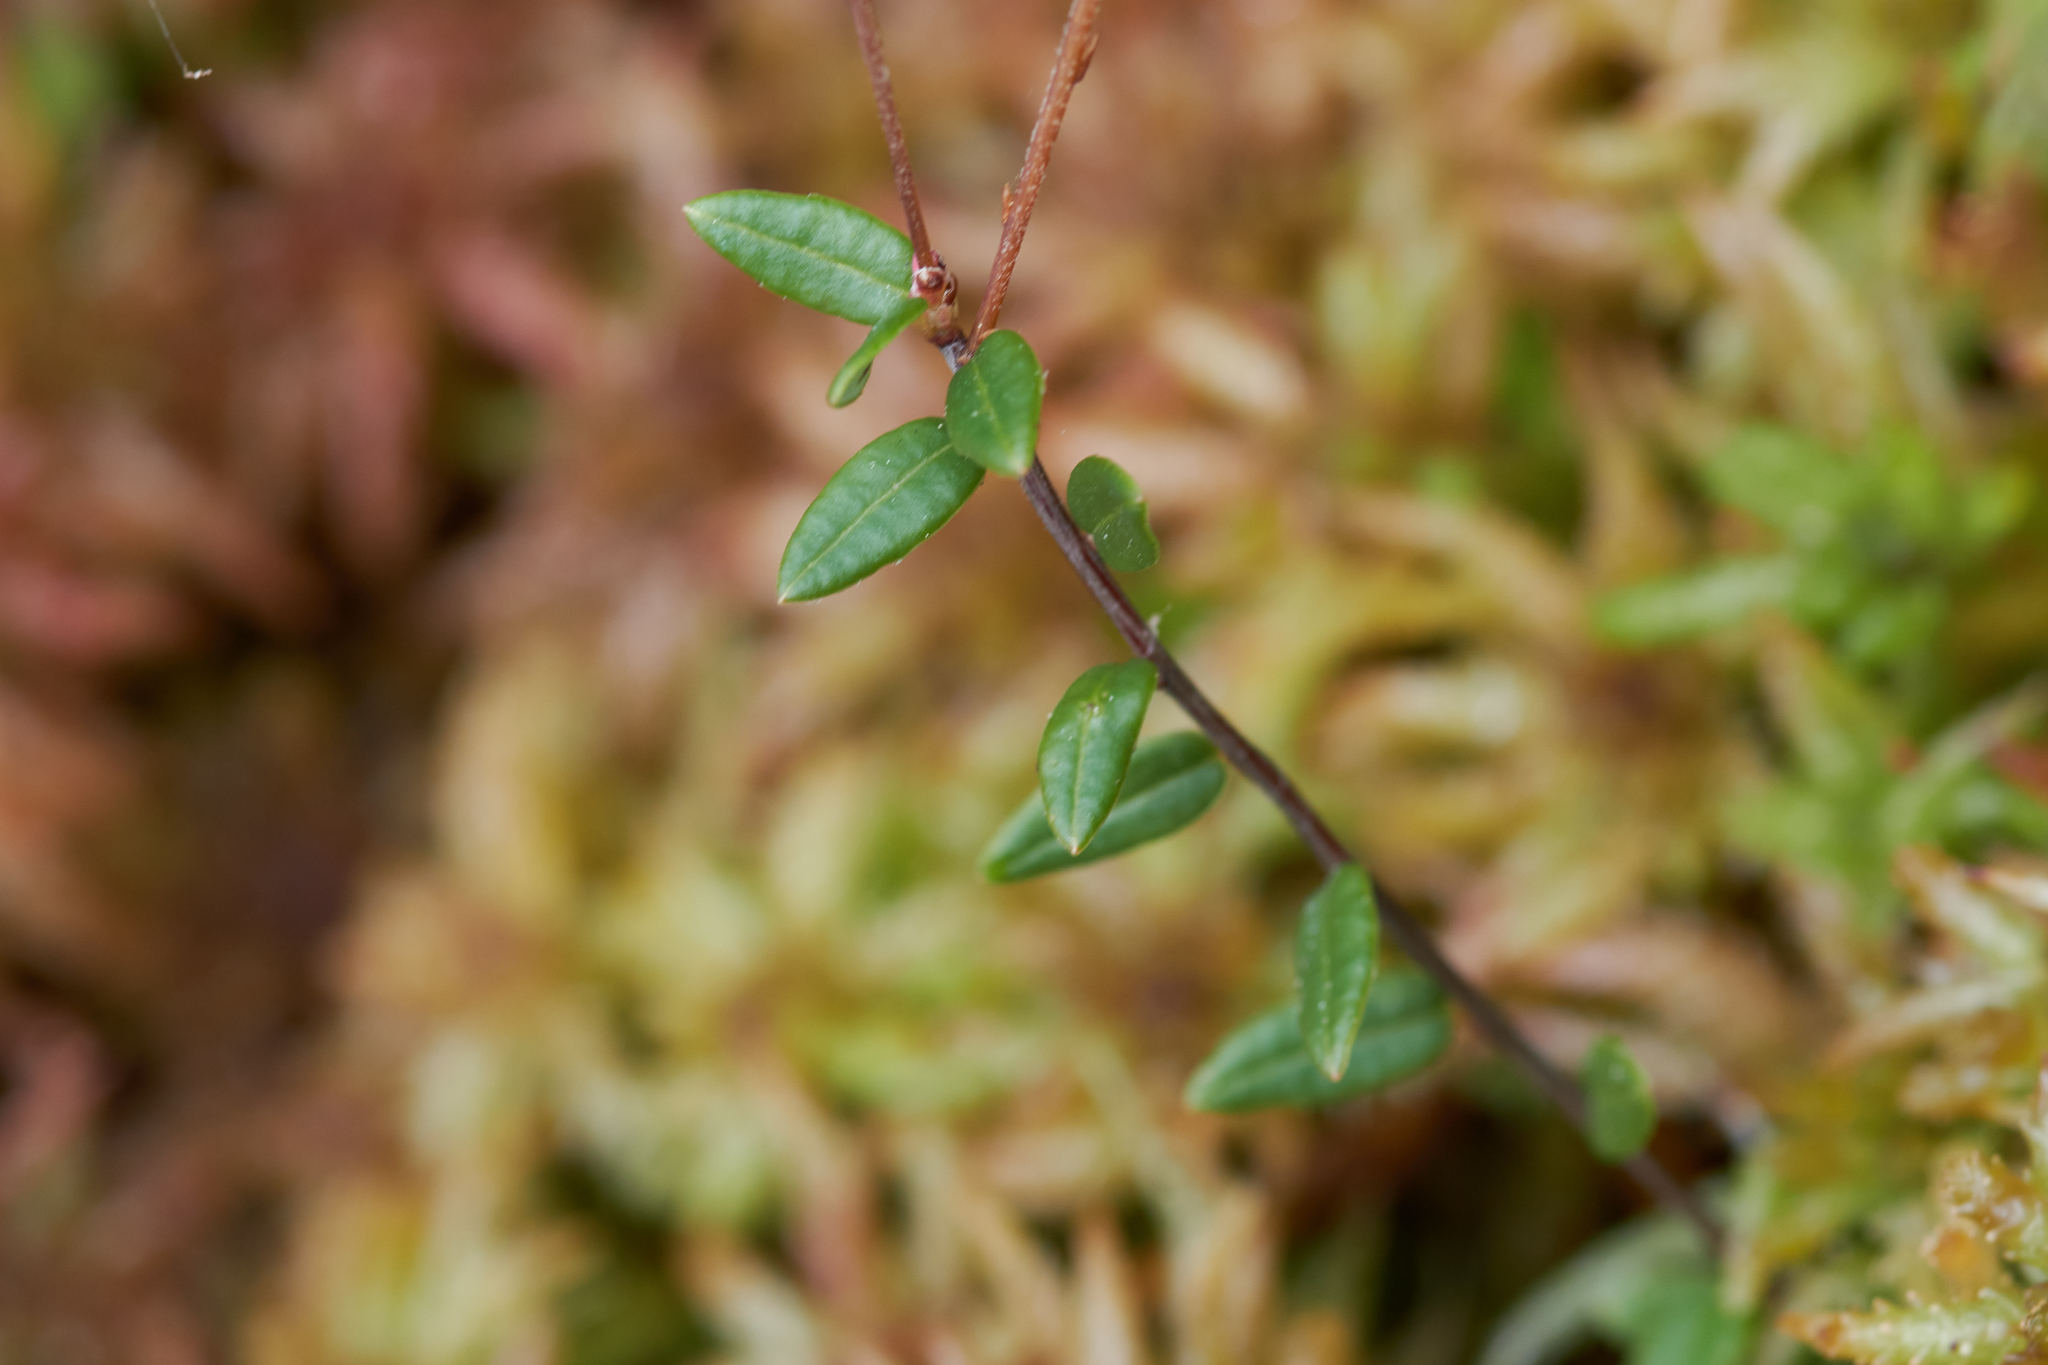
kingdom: Plantae
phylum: Tracheophyta
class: Magnoliopsida
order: Ericales
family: Ericaceae
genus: Vaccinium
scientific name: Vaccinium oxycoccos
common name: Cranberry
